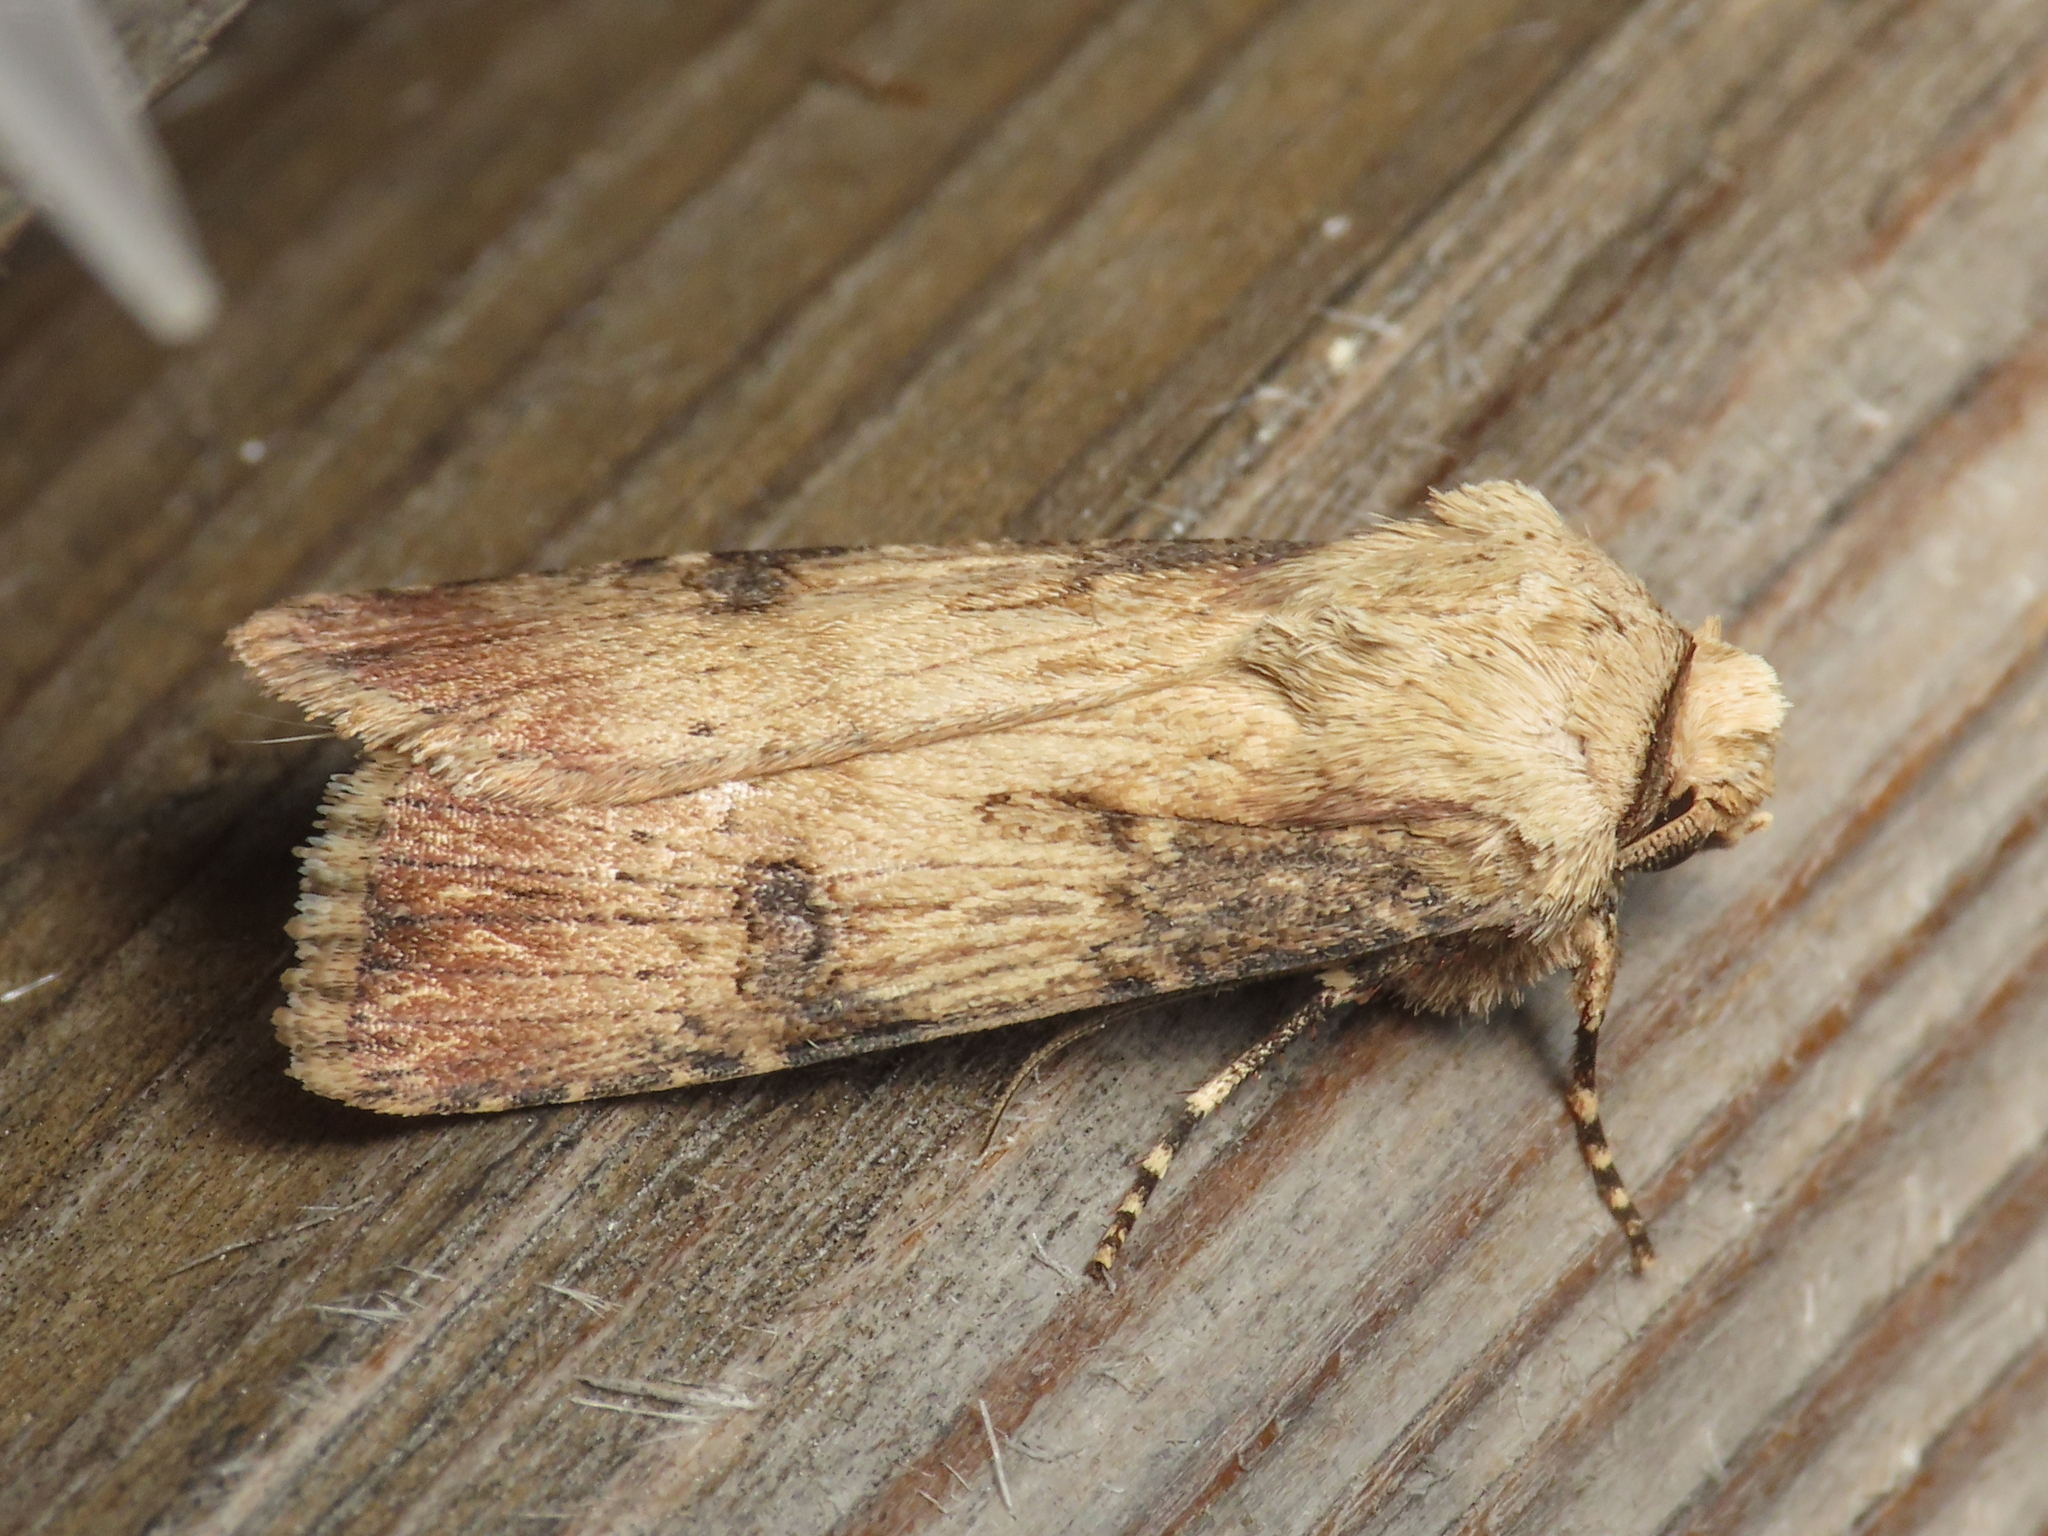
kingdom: Animalia
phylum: Arthropoda
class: Insecta
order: Lepidoptera
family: Noctuidae
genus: Agrotis
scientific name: Agrotis puta
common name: Shuttle-shaped dart
